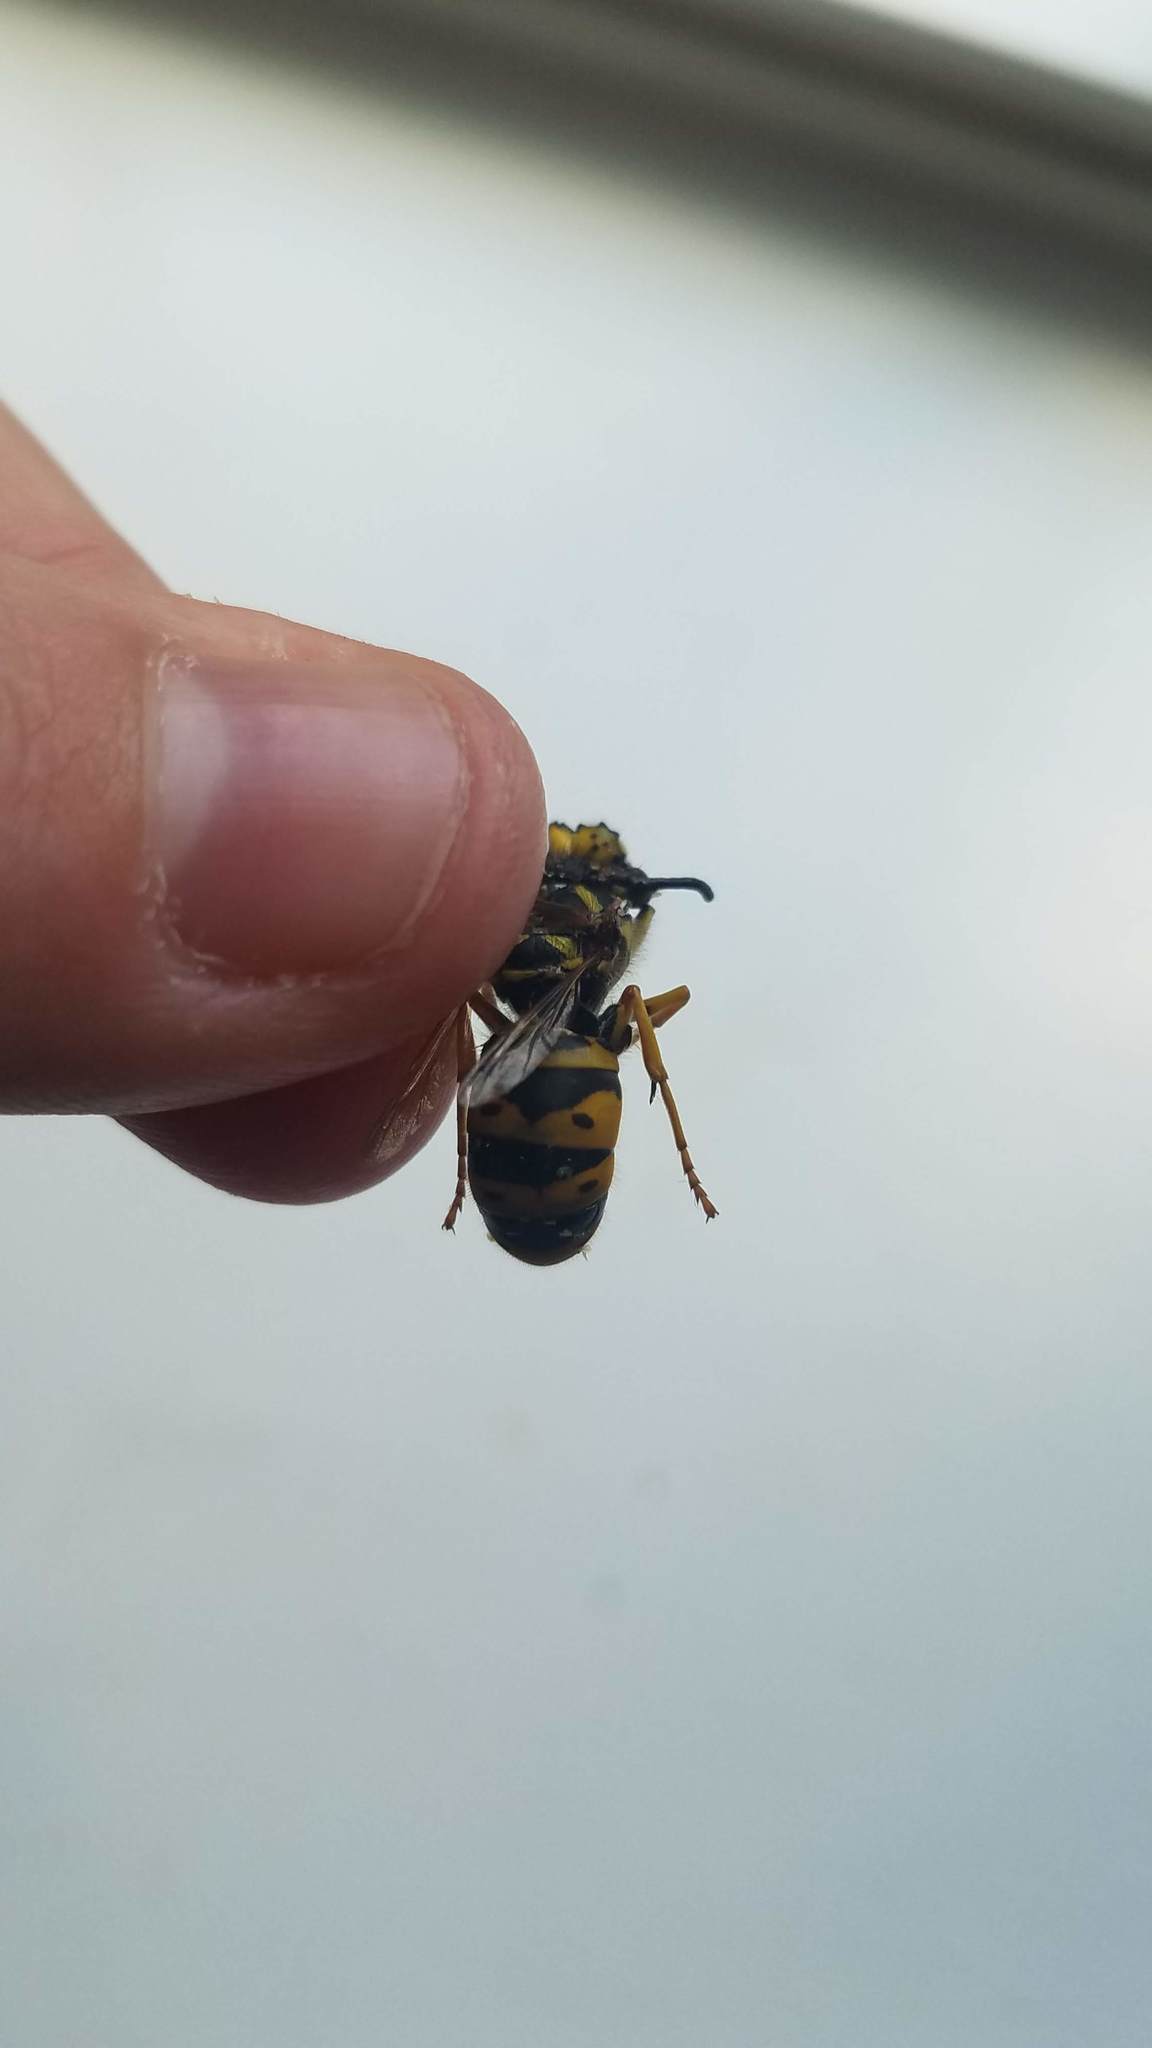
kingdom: Animalia
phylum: Arthropoda
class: Insecta
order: Hymenoptera
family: Vespidae
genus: Vespula
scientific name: Vespula maculifrons
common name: Eastern yellowjacket
